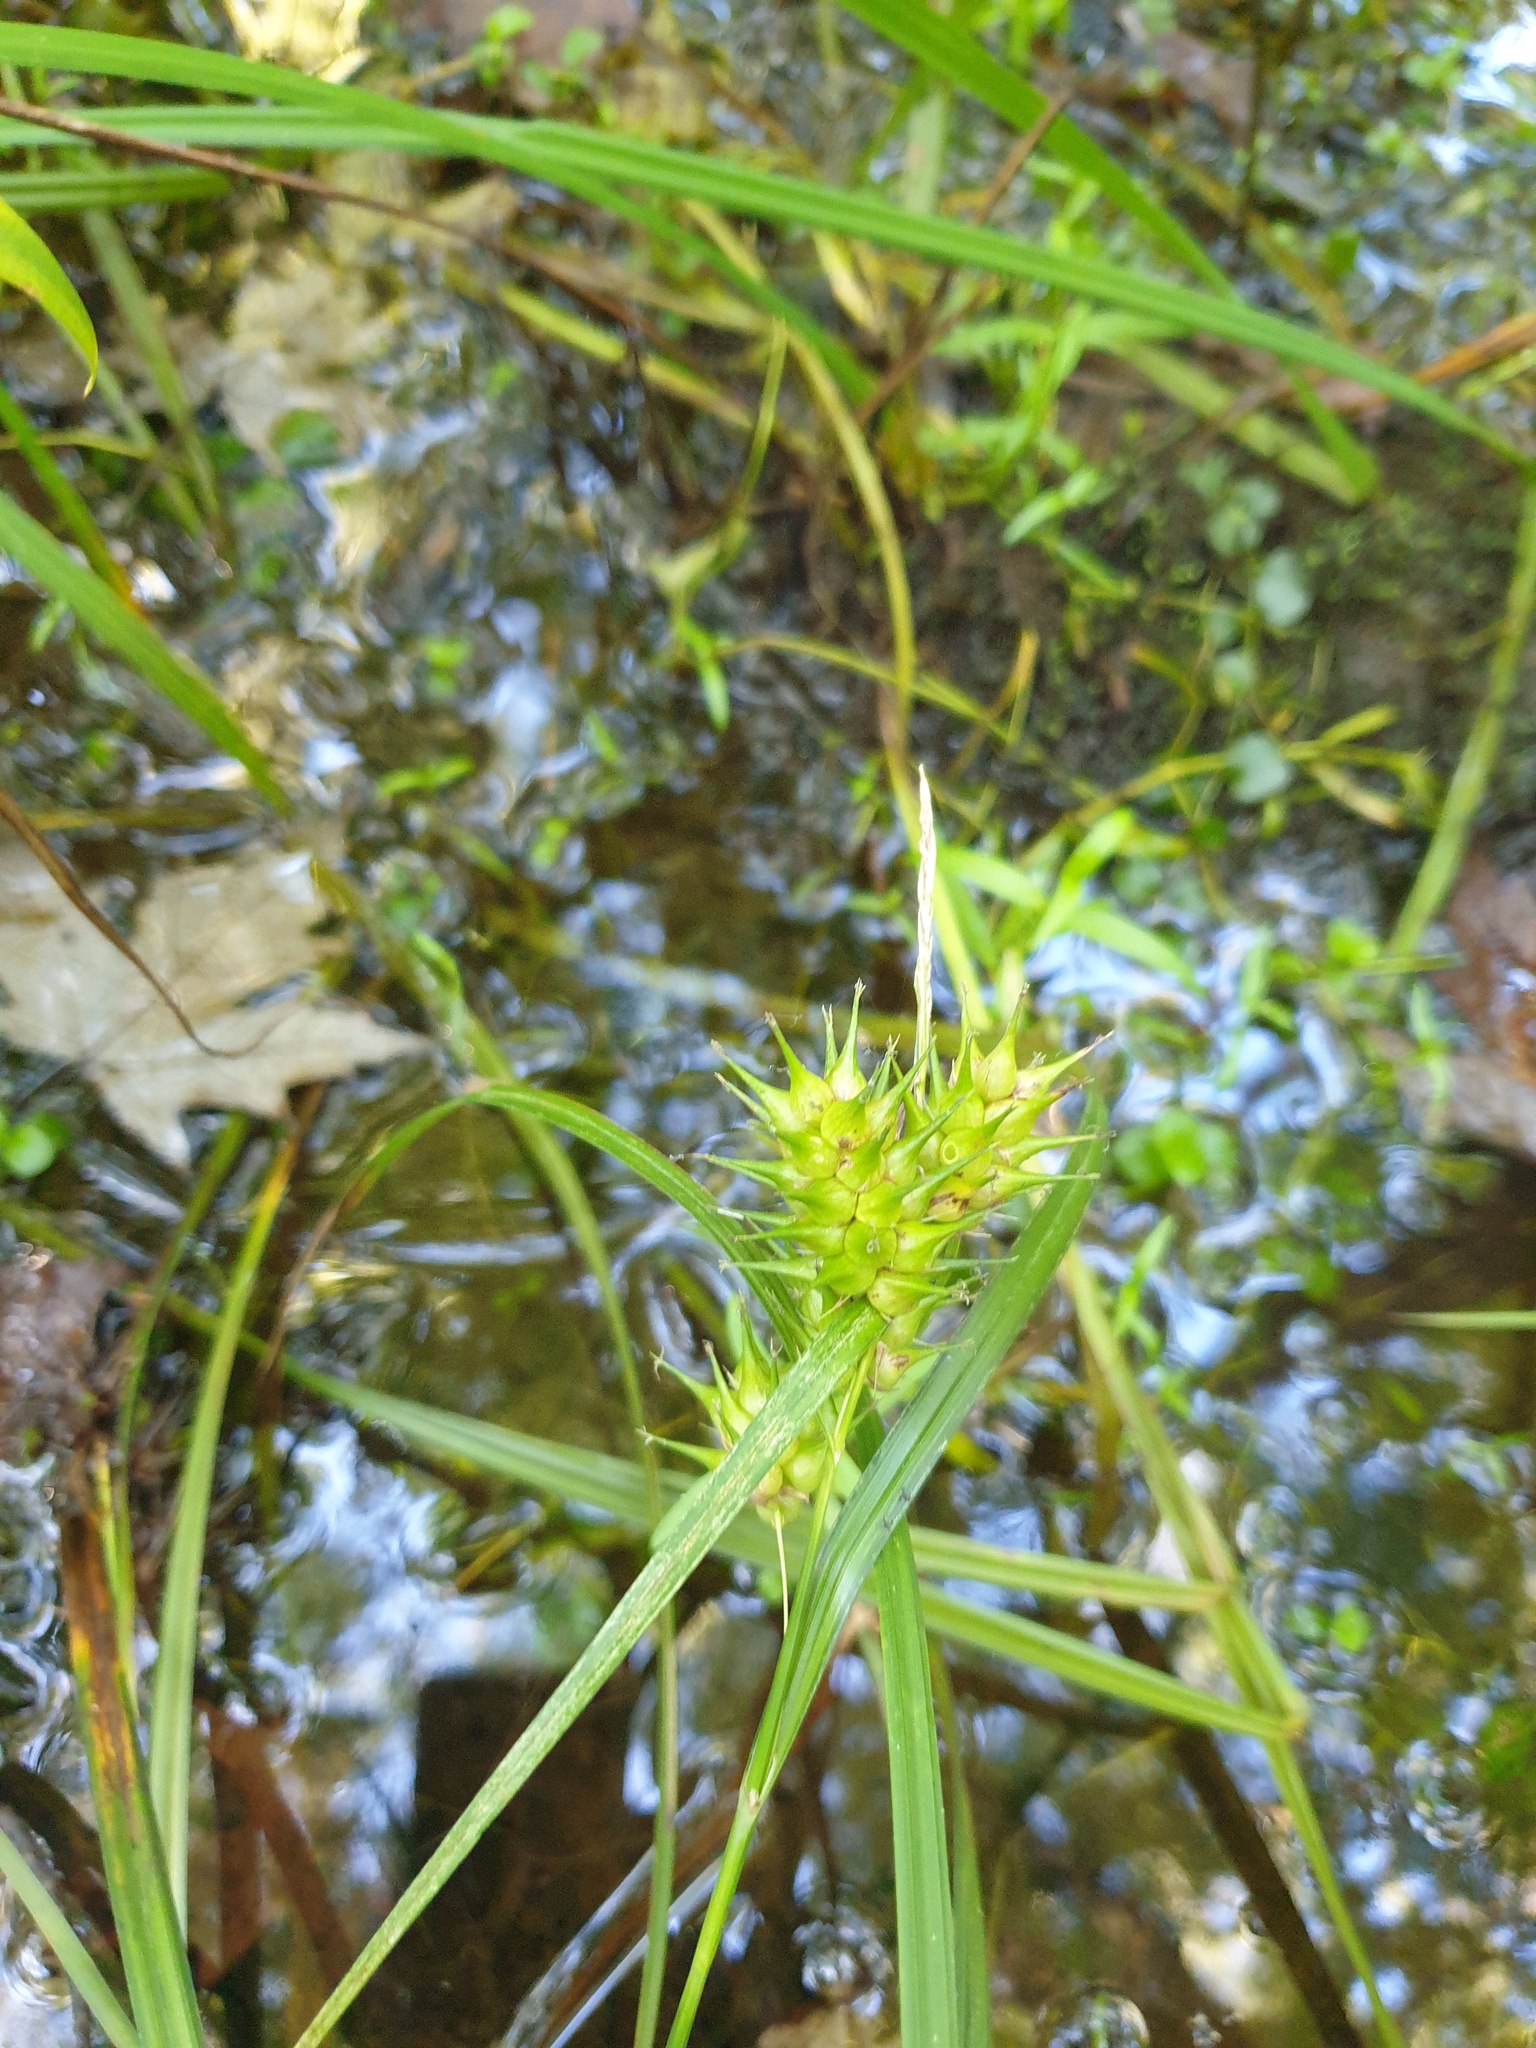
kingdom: Plantae
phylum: Tracheophyta
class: Liliopsida
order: Poales
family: Cyperaceae
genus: Carex
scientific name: Carex lupulina
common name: Hop sedge
